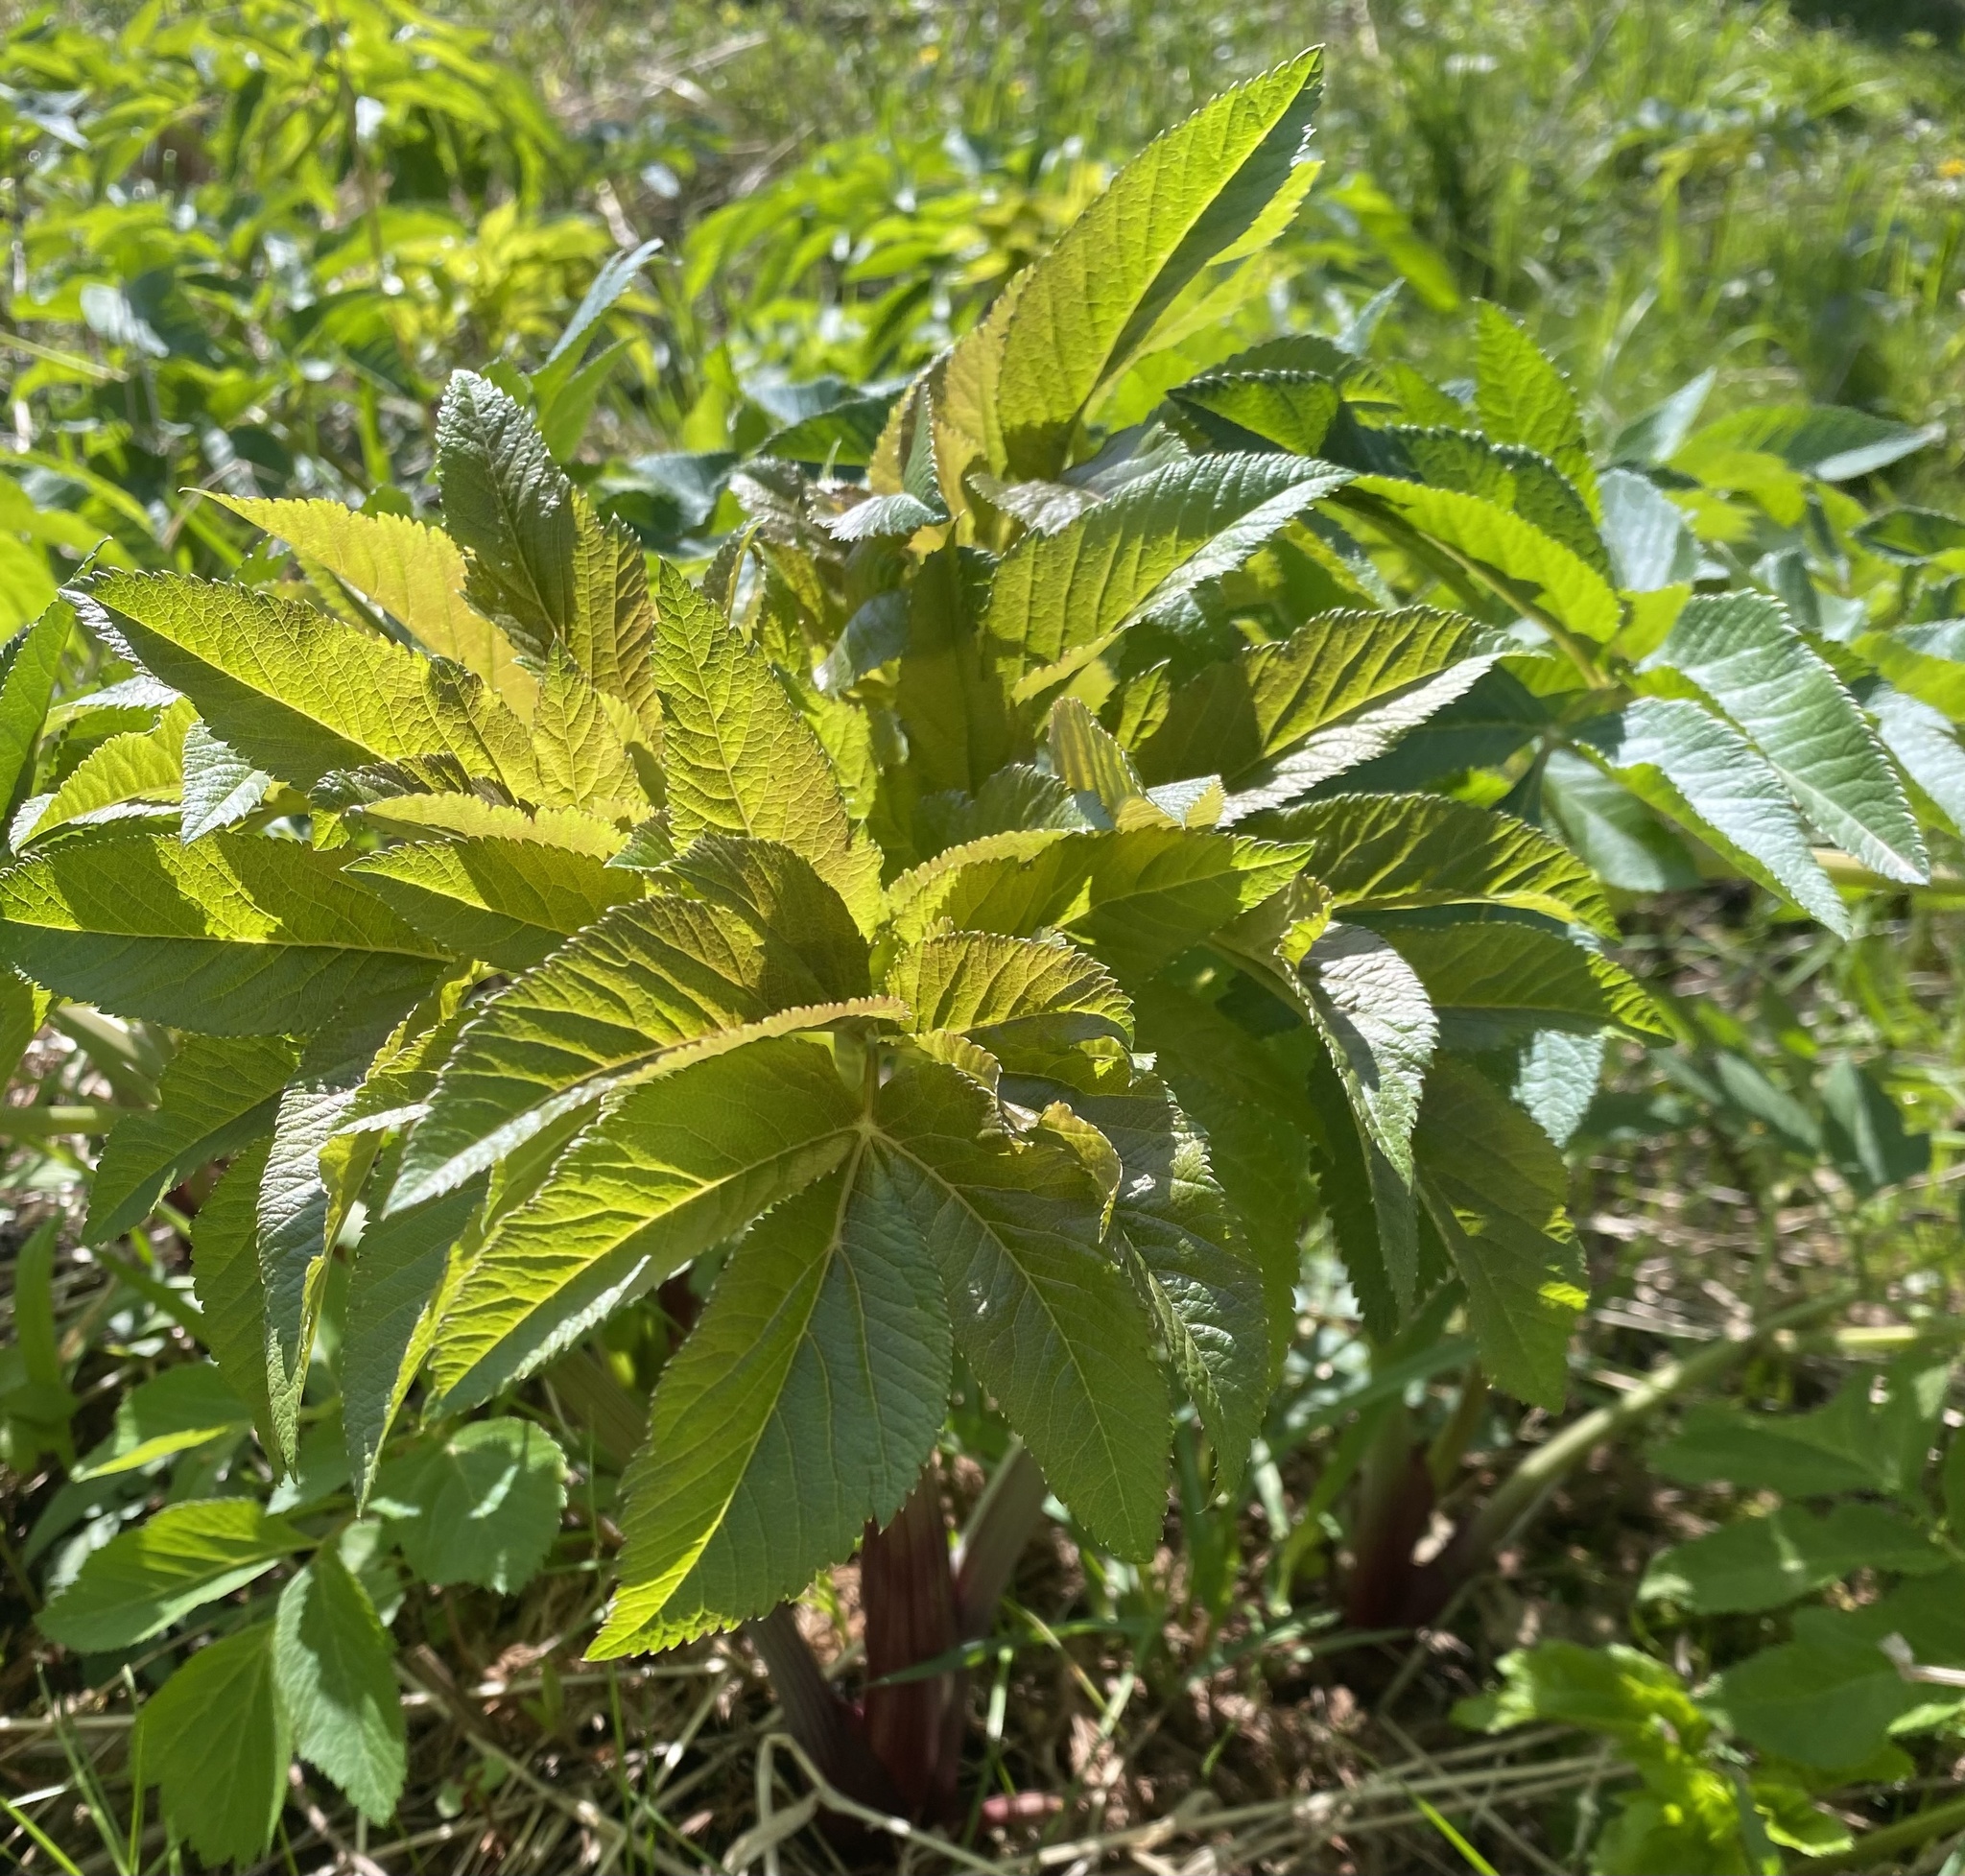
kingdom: Plantae
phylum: Tracheophyta
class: Magnoliopsida
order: Apiales
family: Apiaceae
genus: Angelica
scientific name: Angelica atropurpurea
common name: Great angelica
